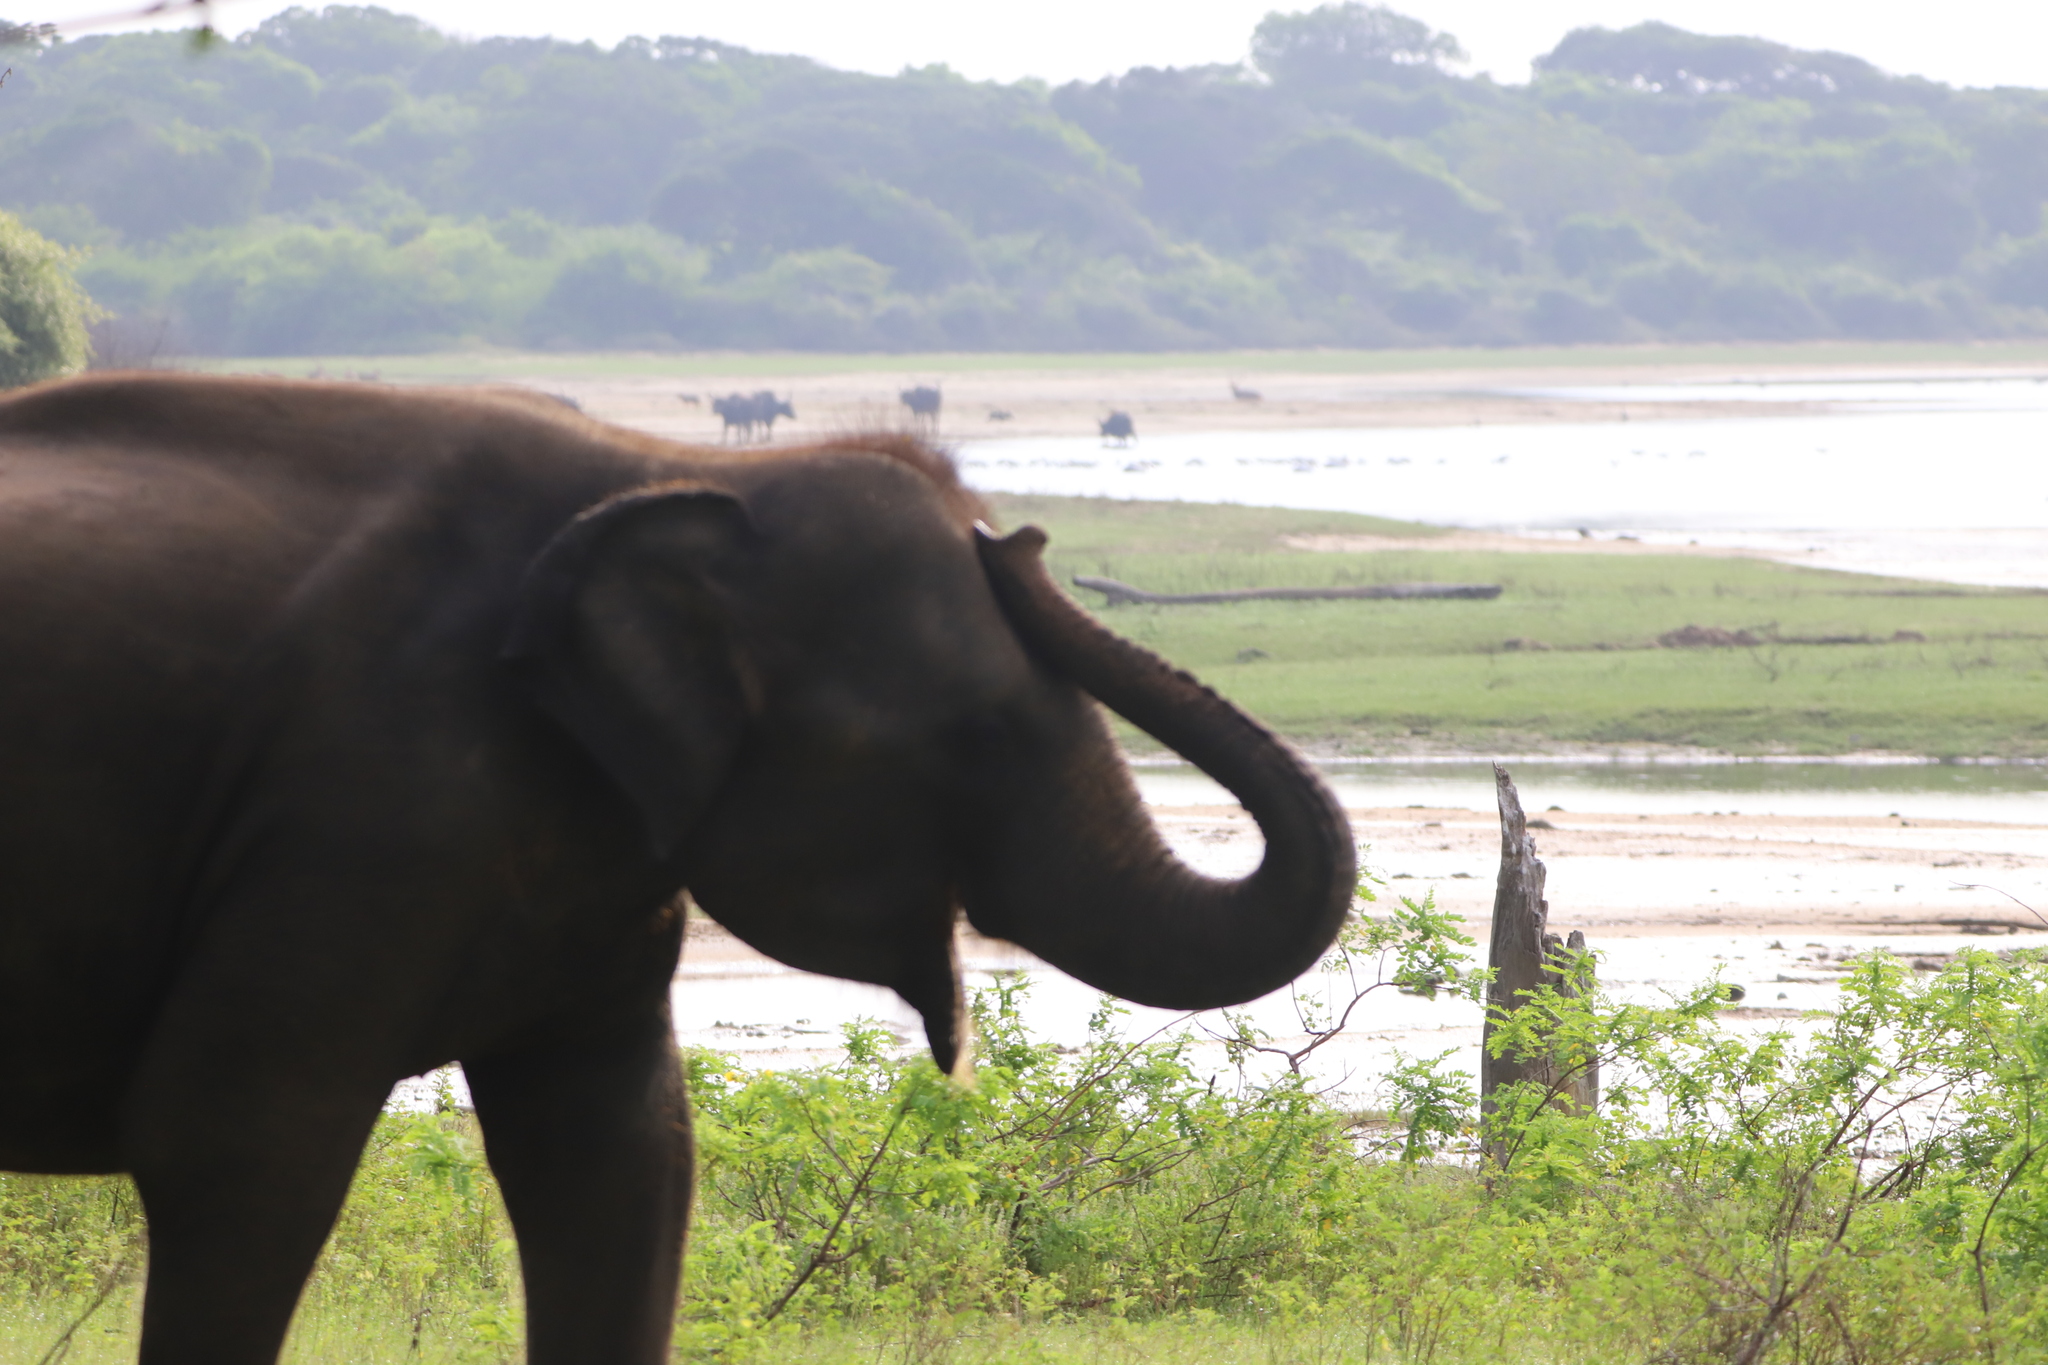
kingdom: Animalia
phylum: Chordata
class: Mammalia
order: Proboscidea
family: Elephantidae
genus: Elephas
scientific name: Elephas maximus
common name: Asian elephant
